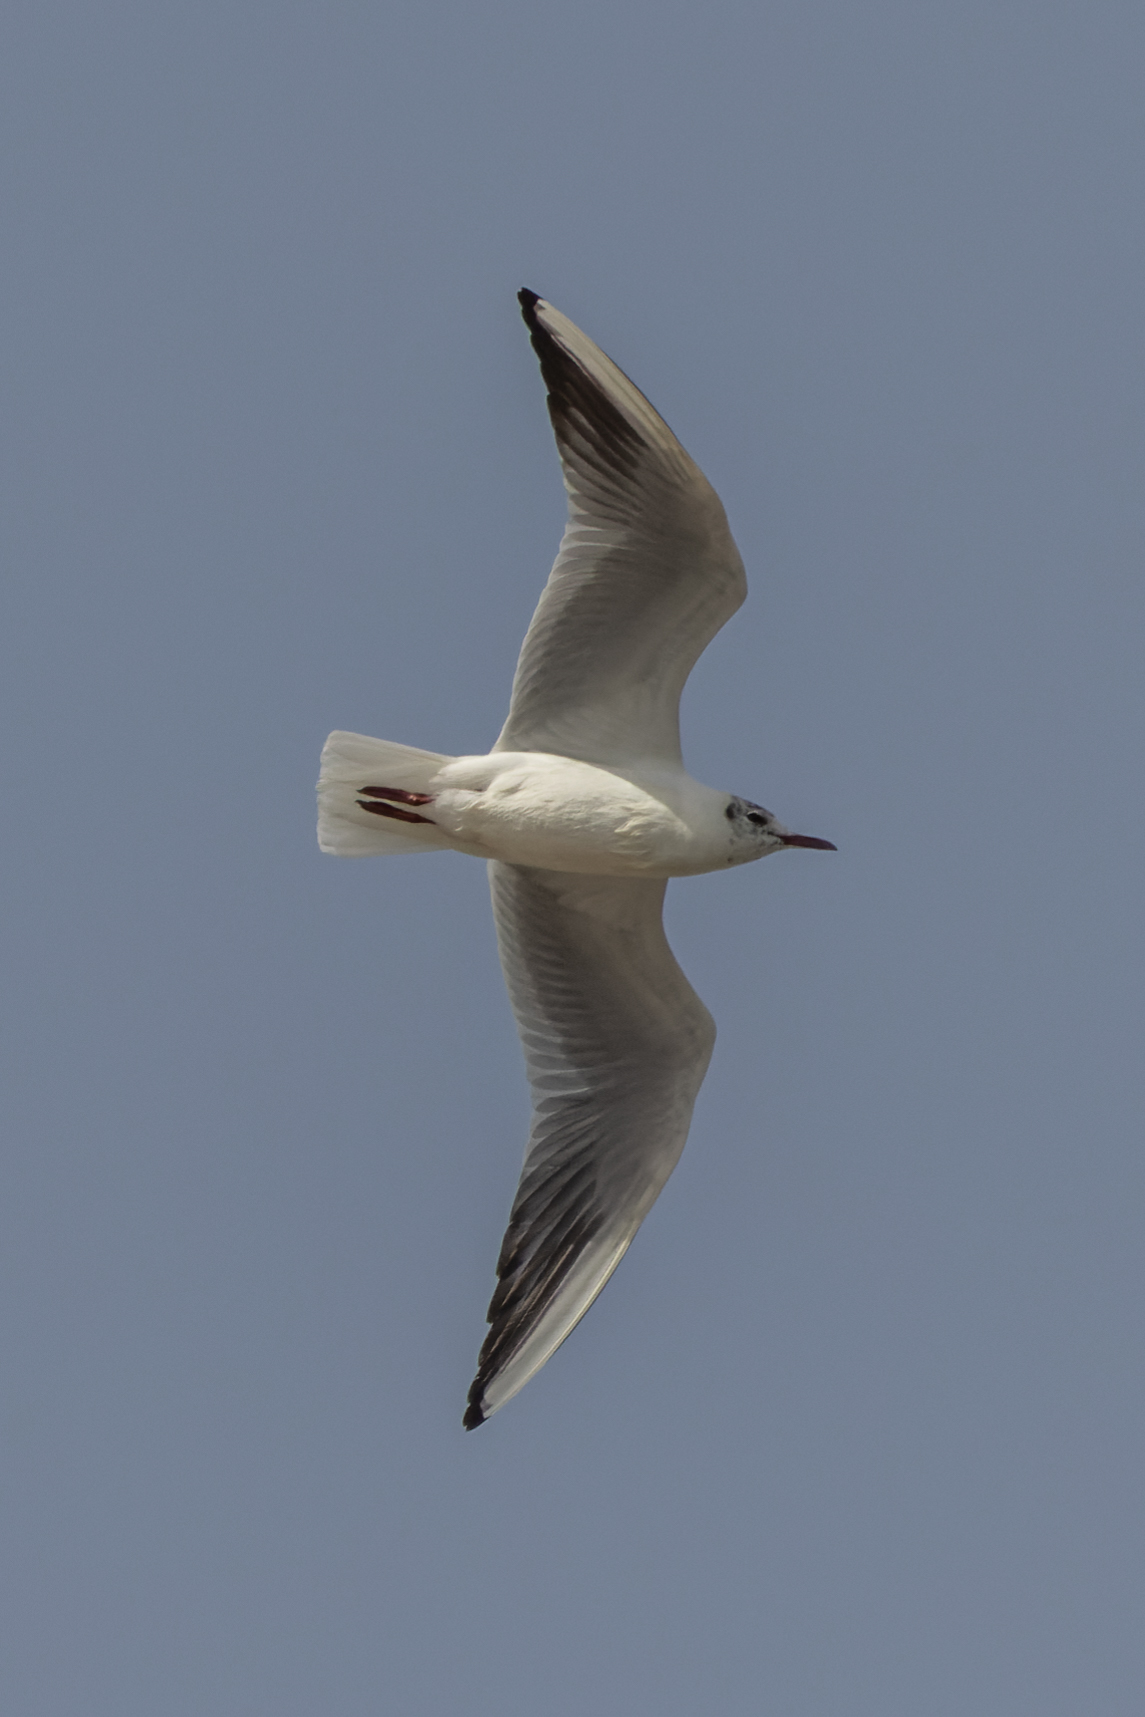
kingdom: Animalia
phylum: Chordata
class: Aves
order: Charadriiformes
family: Laridae
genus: Chroicocephalus
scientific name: Chroicocephalus ridibundus
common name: Black-headed gull
